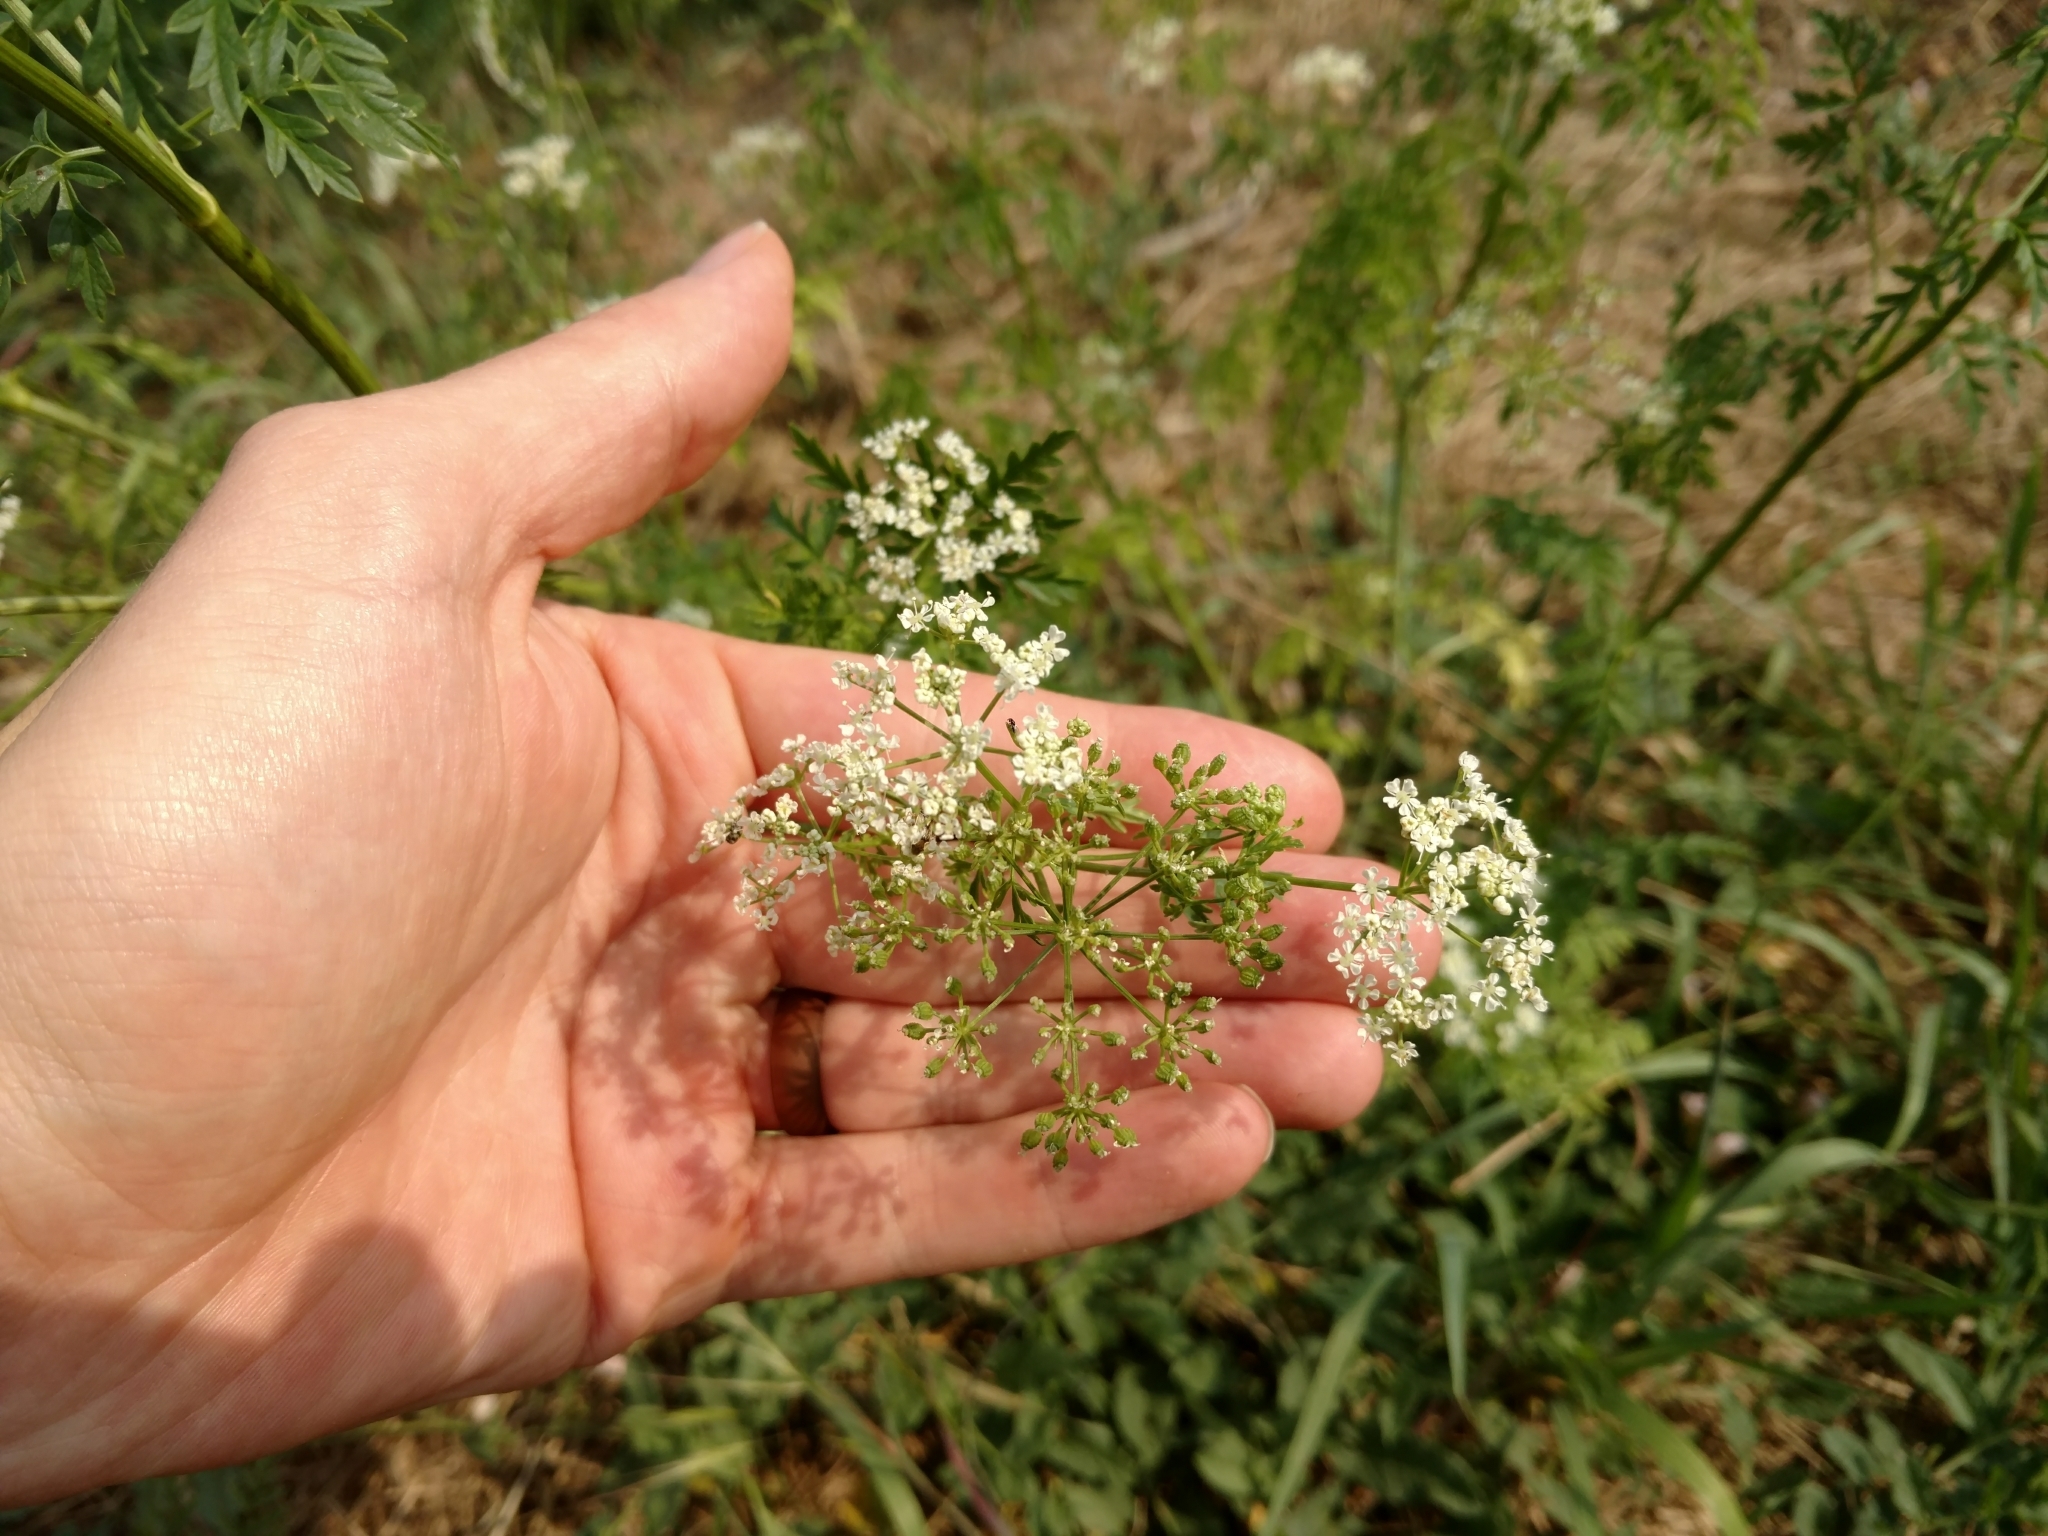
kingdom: Plantae
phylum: Tracheophyta
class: Magnoliopsida
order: Apiales
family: Apiaceae
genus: Conium
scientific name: Conium maculatum
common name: Hemlock
